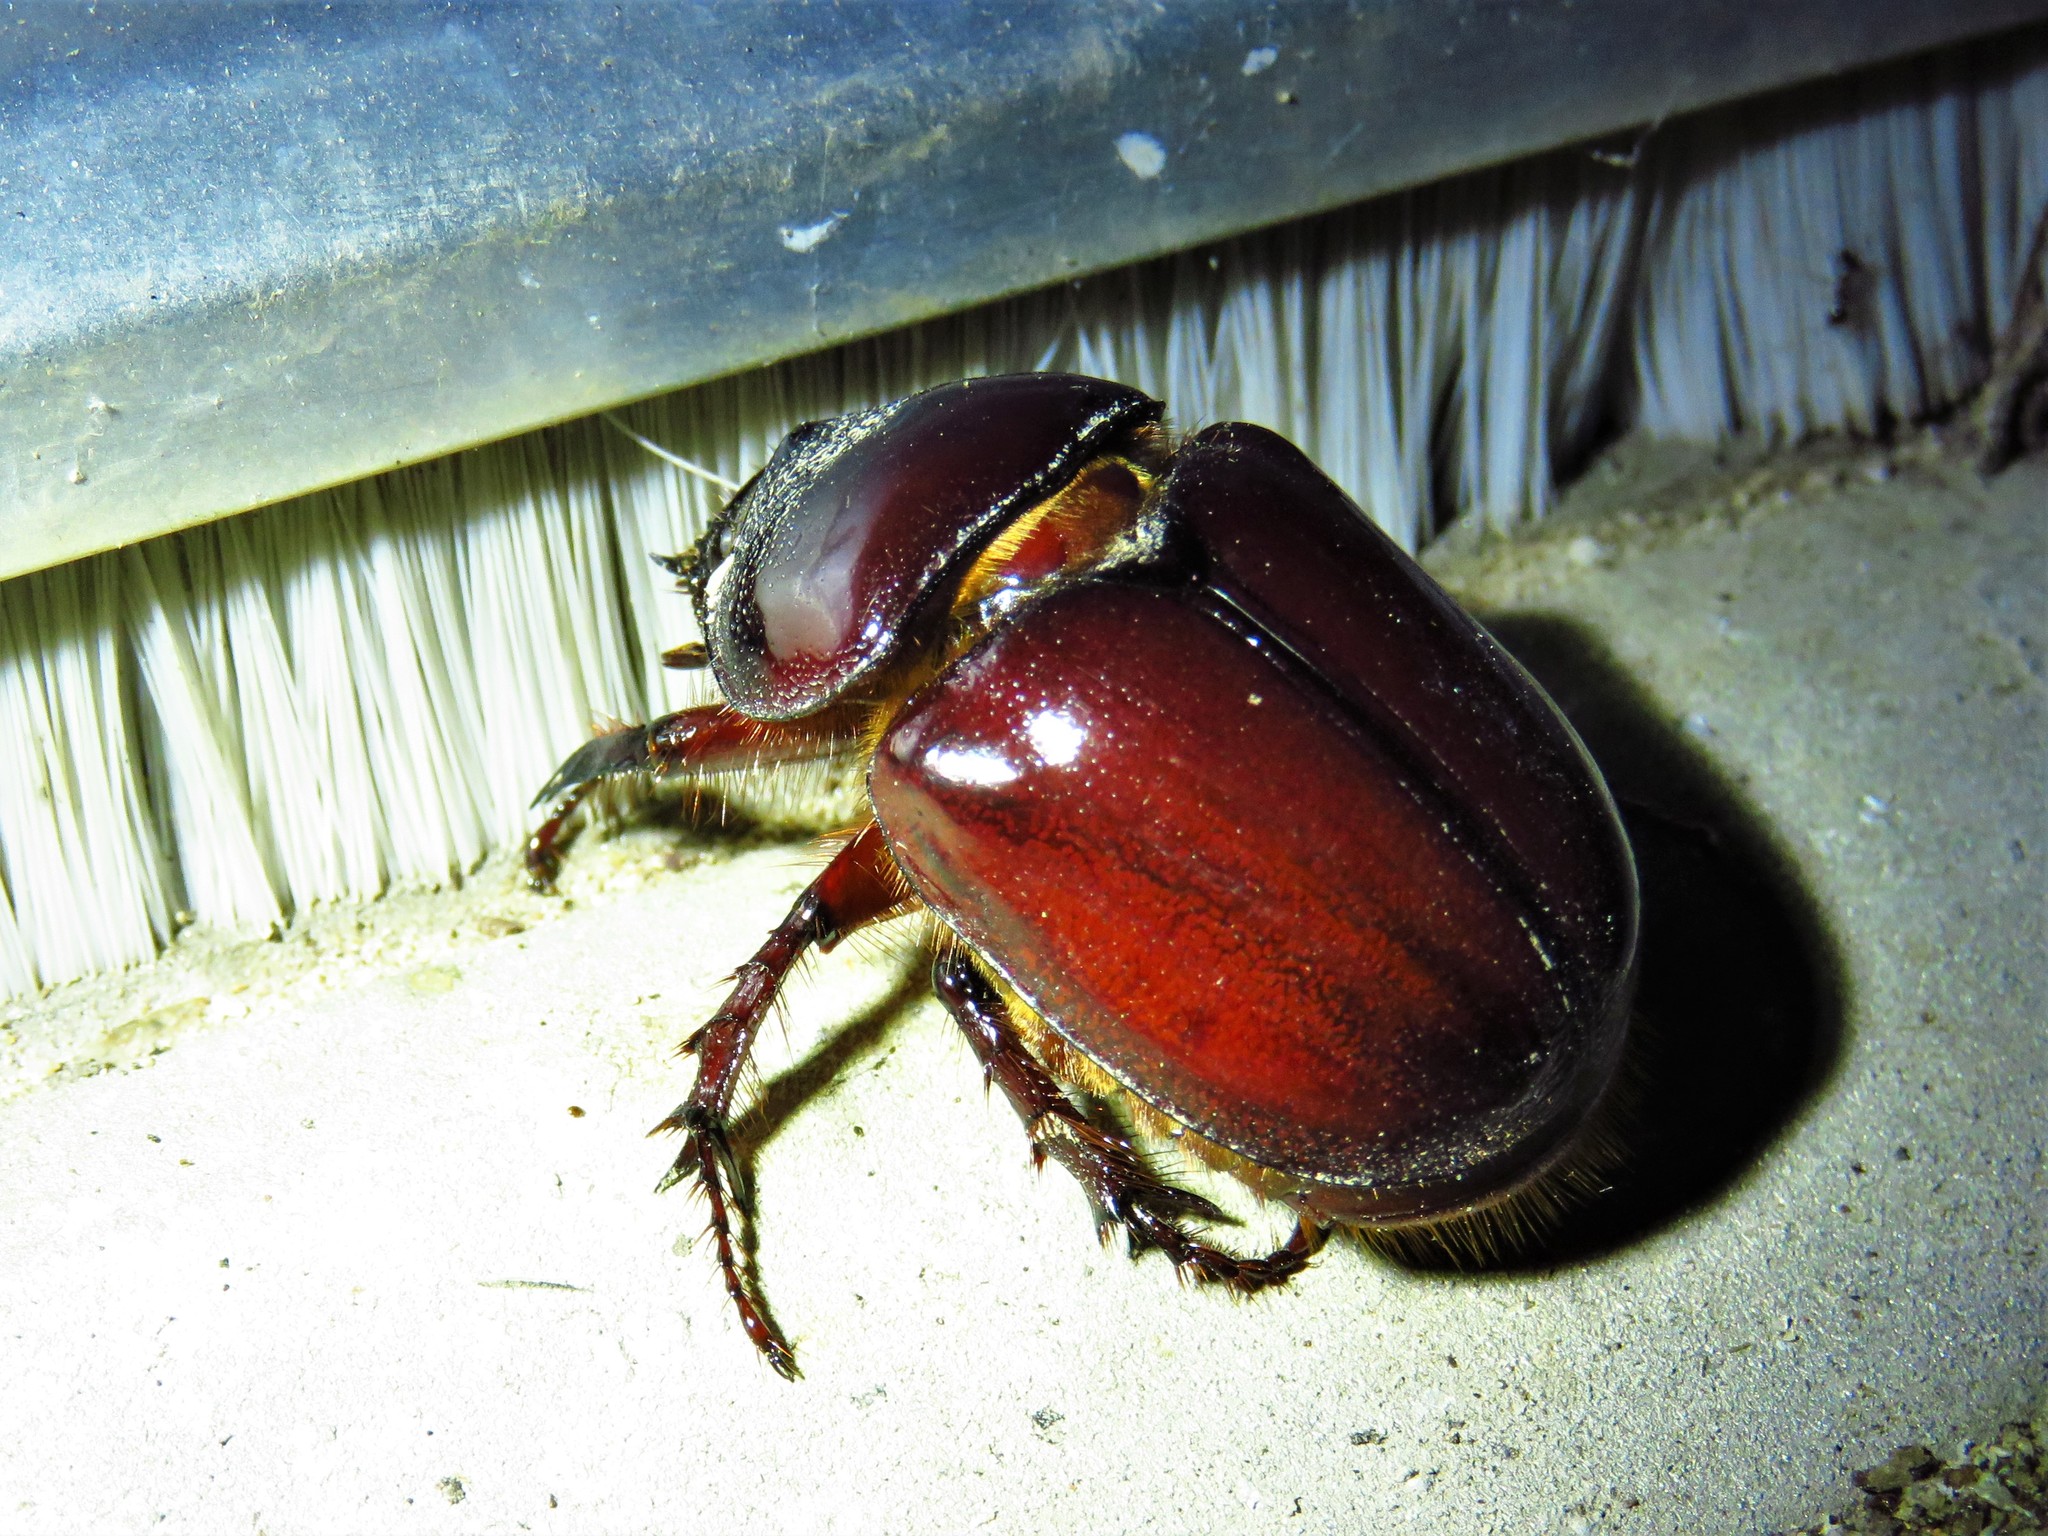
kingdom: Animalia
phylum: Arthropoda
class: Insecta
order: Coleoptera
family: Scarabaeidae
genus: Strategus
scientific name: Strategus mormon
